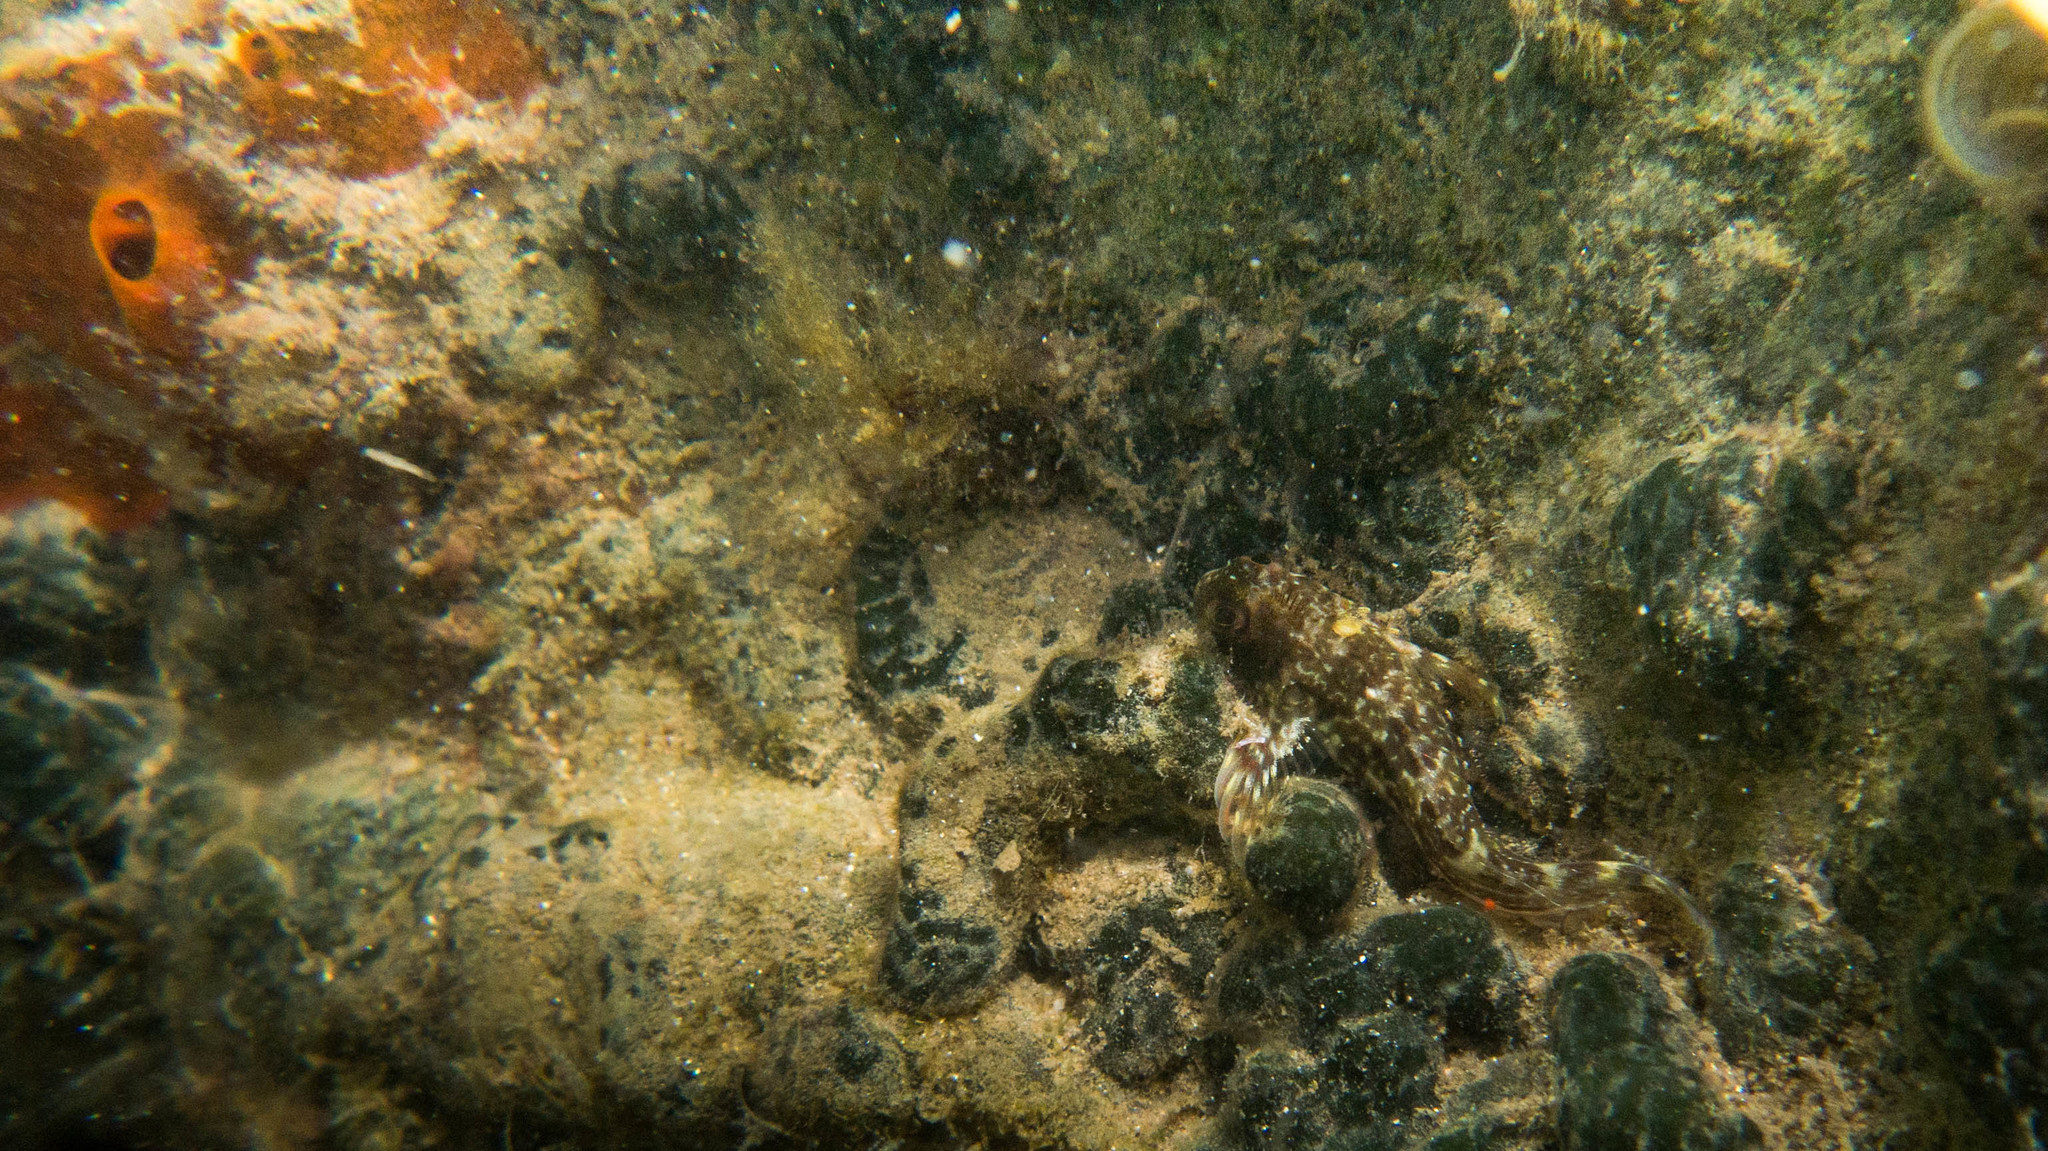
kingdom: Animalia
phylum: Chordata
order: Perciformes
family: Blenniidae
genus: Scartella
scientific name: Scartella cristata
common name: Molly miller
